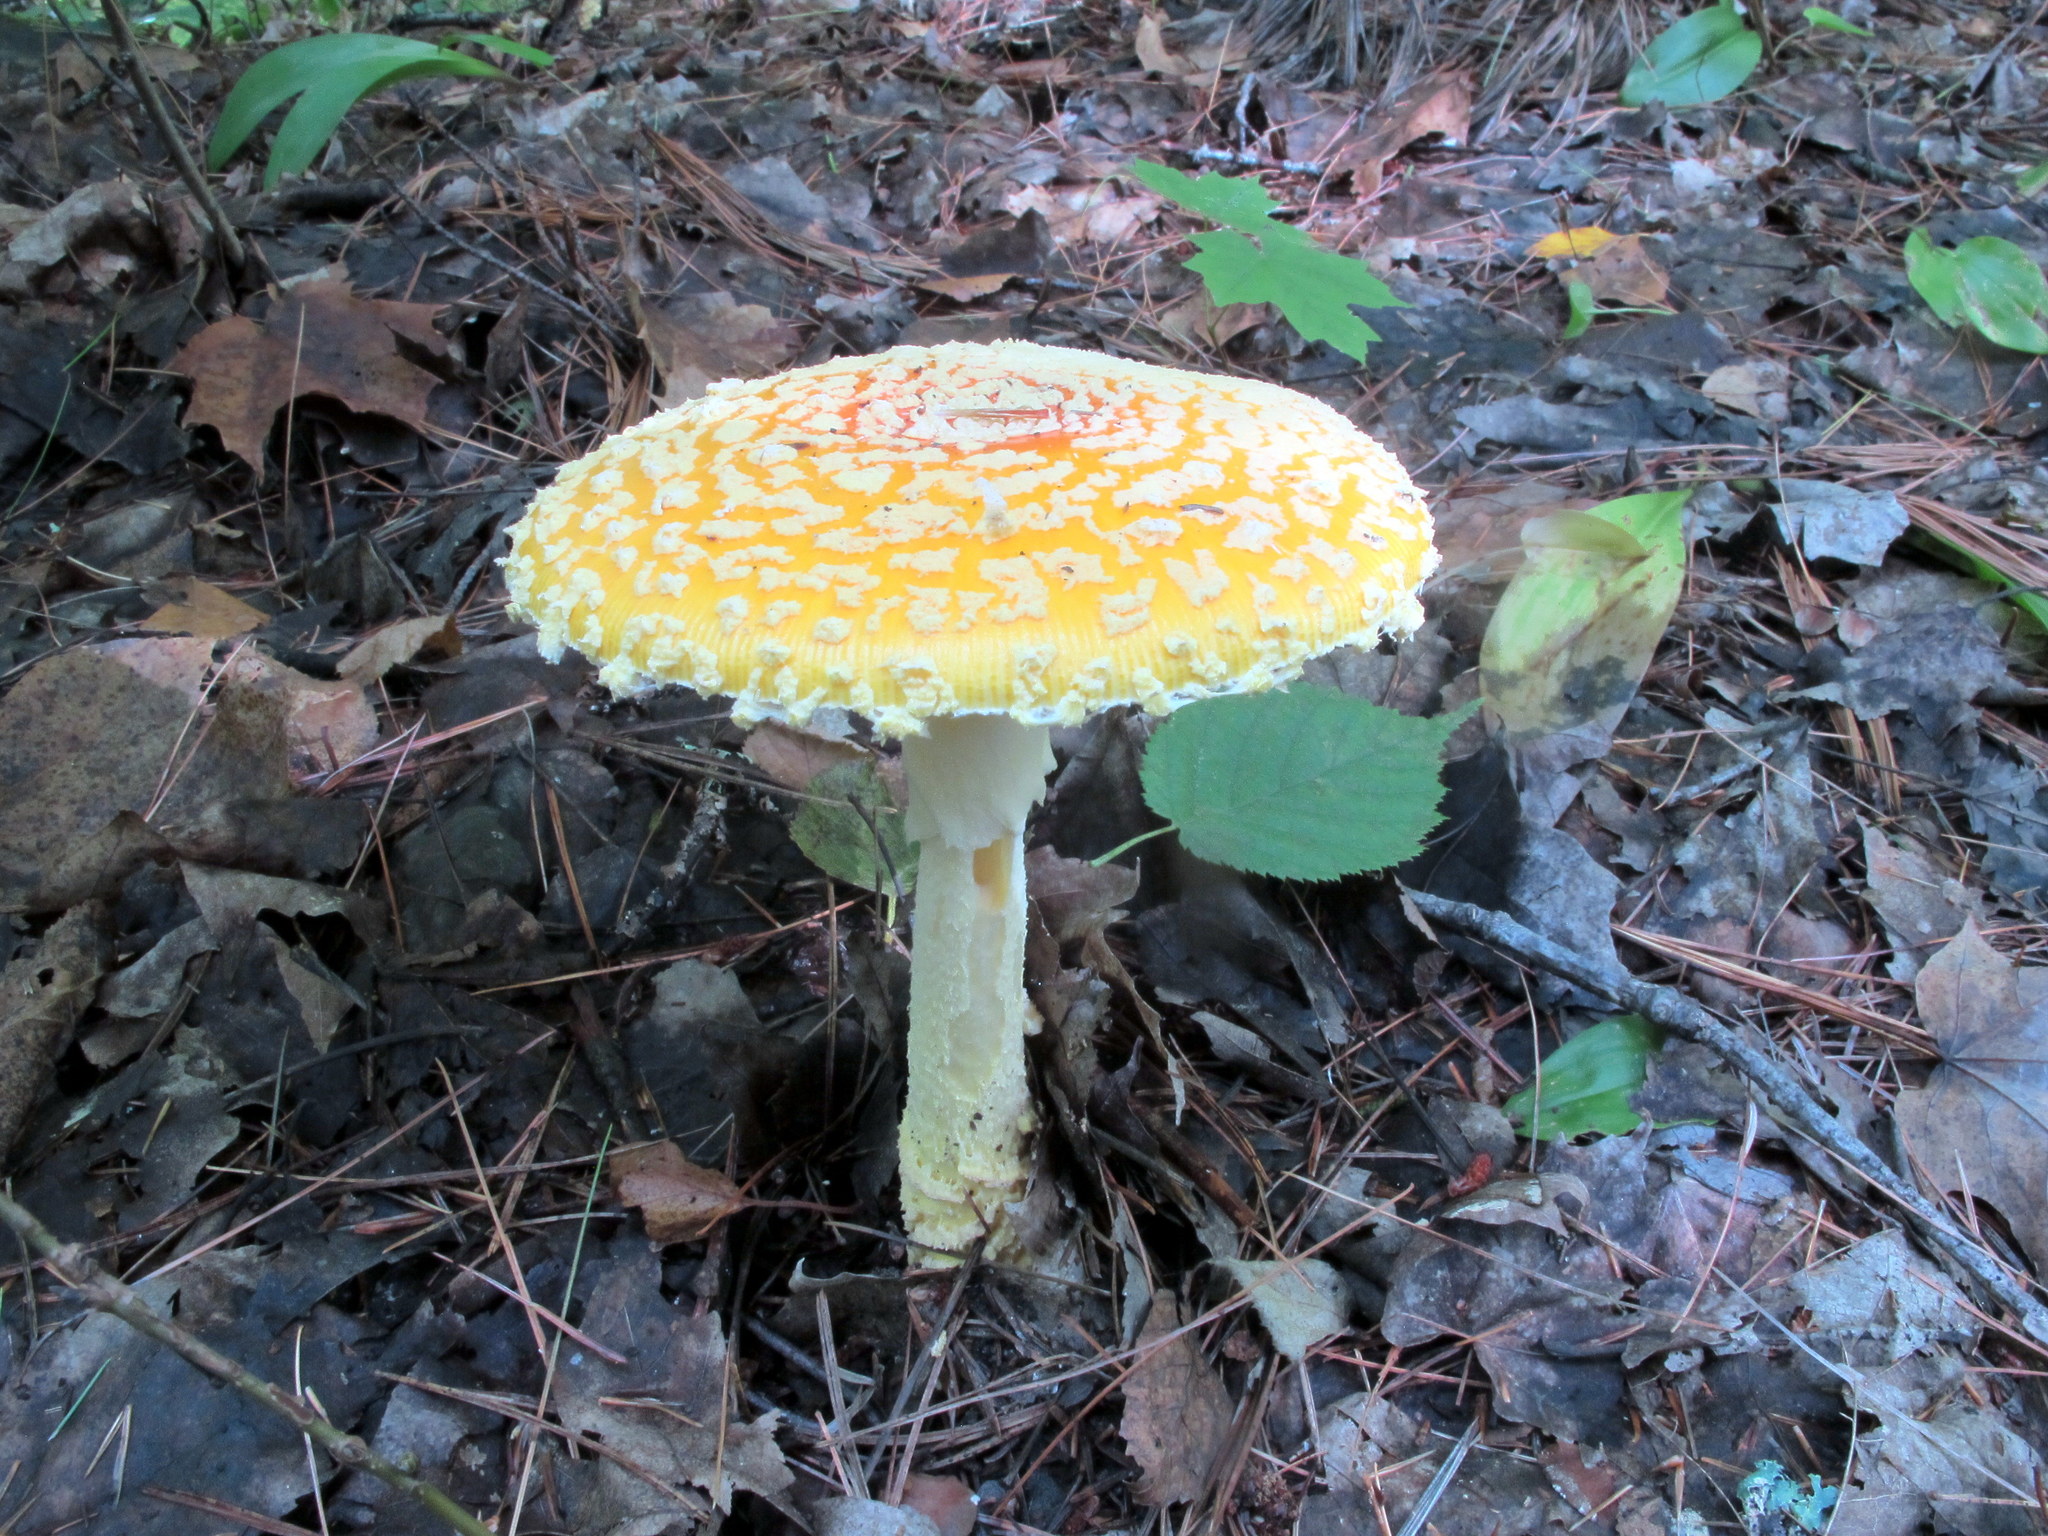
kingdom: Fungi
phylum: Basidiomycota
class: Agaricomycetes
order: Agaricales
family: Amanitaceae
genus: Amanita
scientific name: Amanita muscaria
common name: Fly agaric
